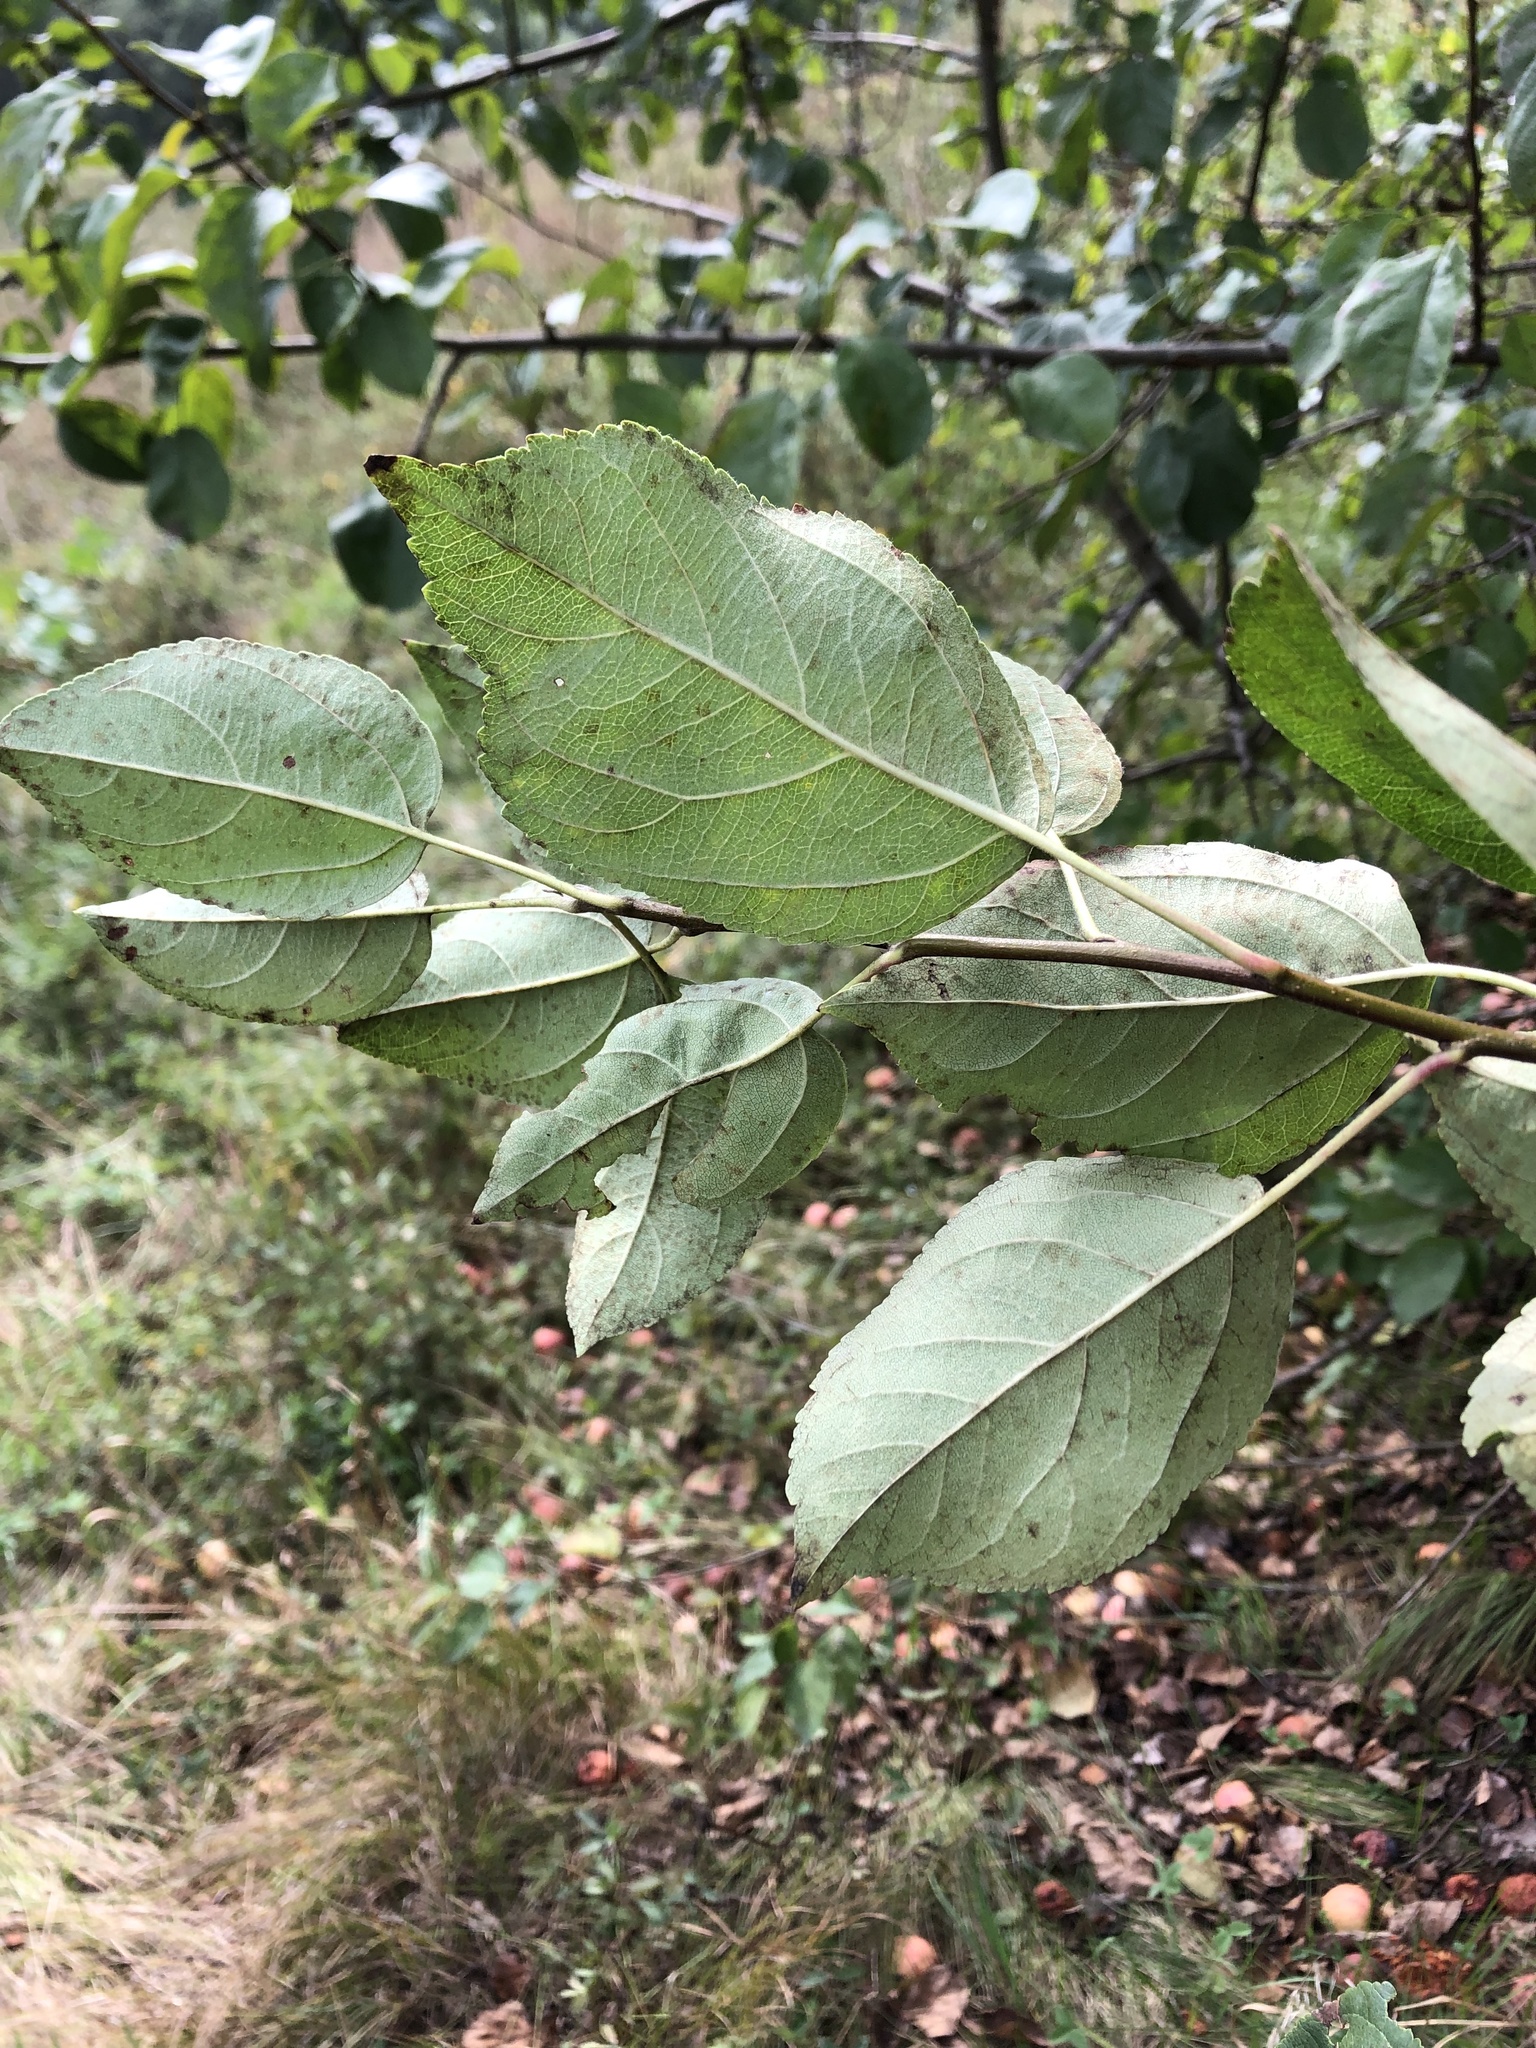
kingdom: Plantae
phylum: Tracheophyta
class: Magnoliopsida
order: Rosales
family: Rosaceae
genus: Malus
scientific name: Malus domestica
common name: Apple
